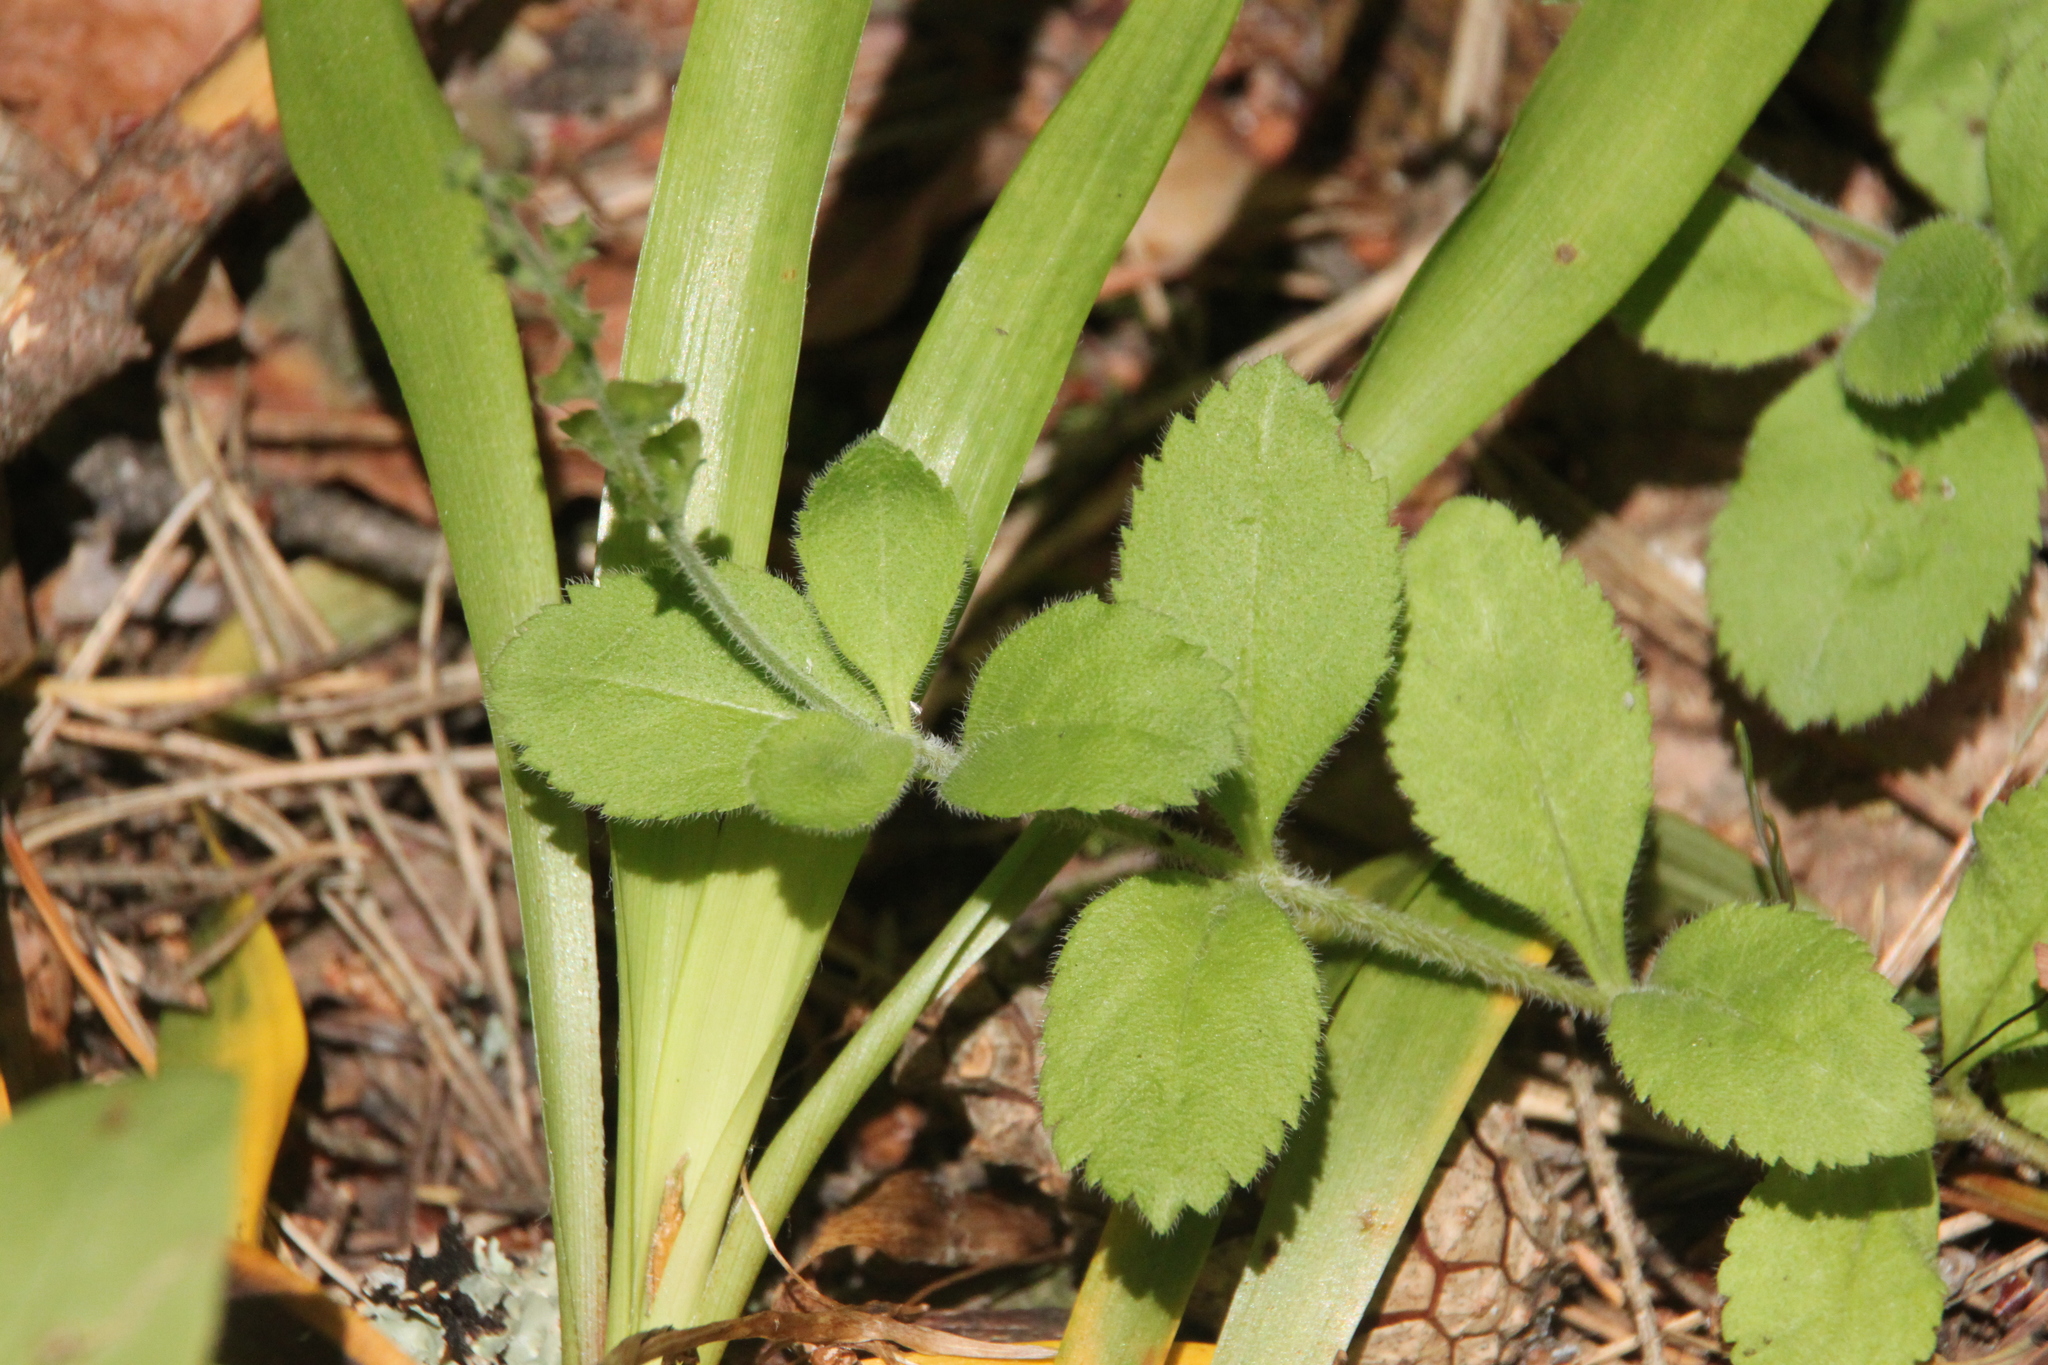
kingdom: Plantae
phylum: Tracheophyta
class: Magnoliopsida
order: Lamiales
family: Plantaginaceae
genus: Veronica
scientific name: Veronica officinalis
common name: Common speedwell
